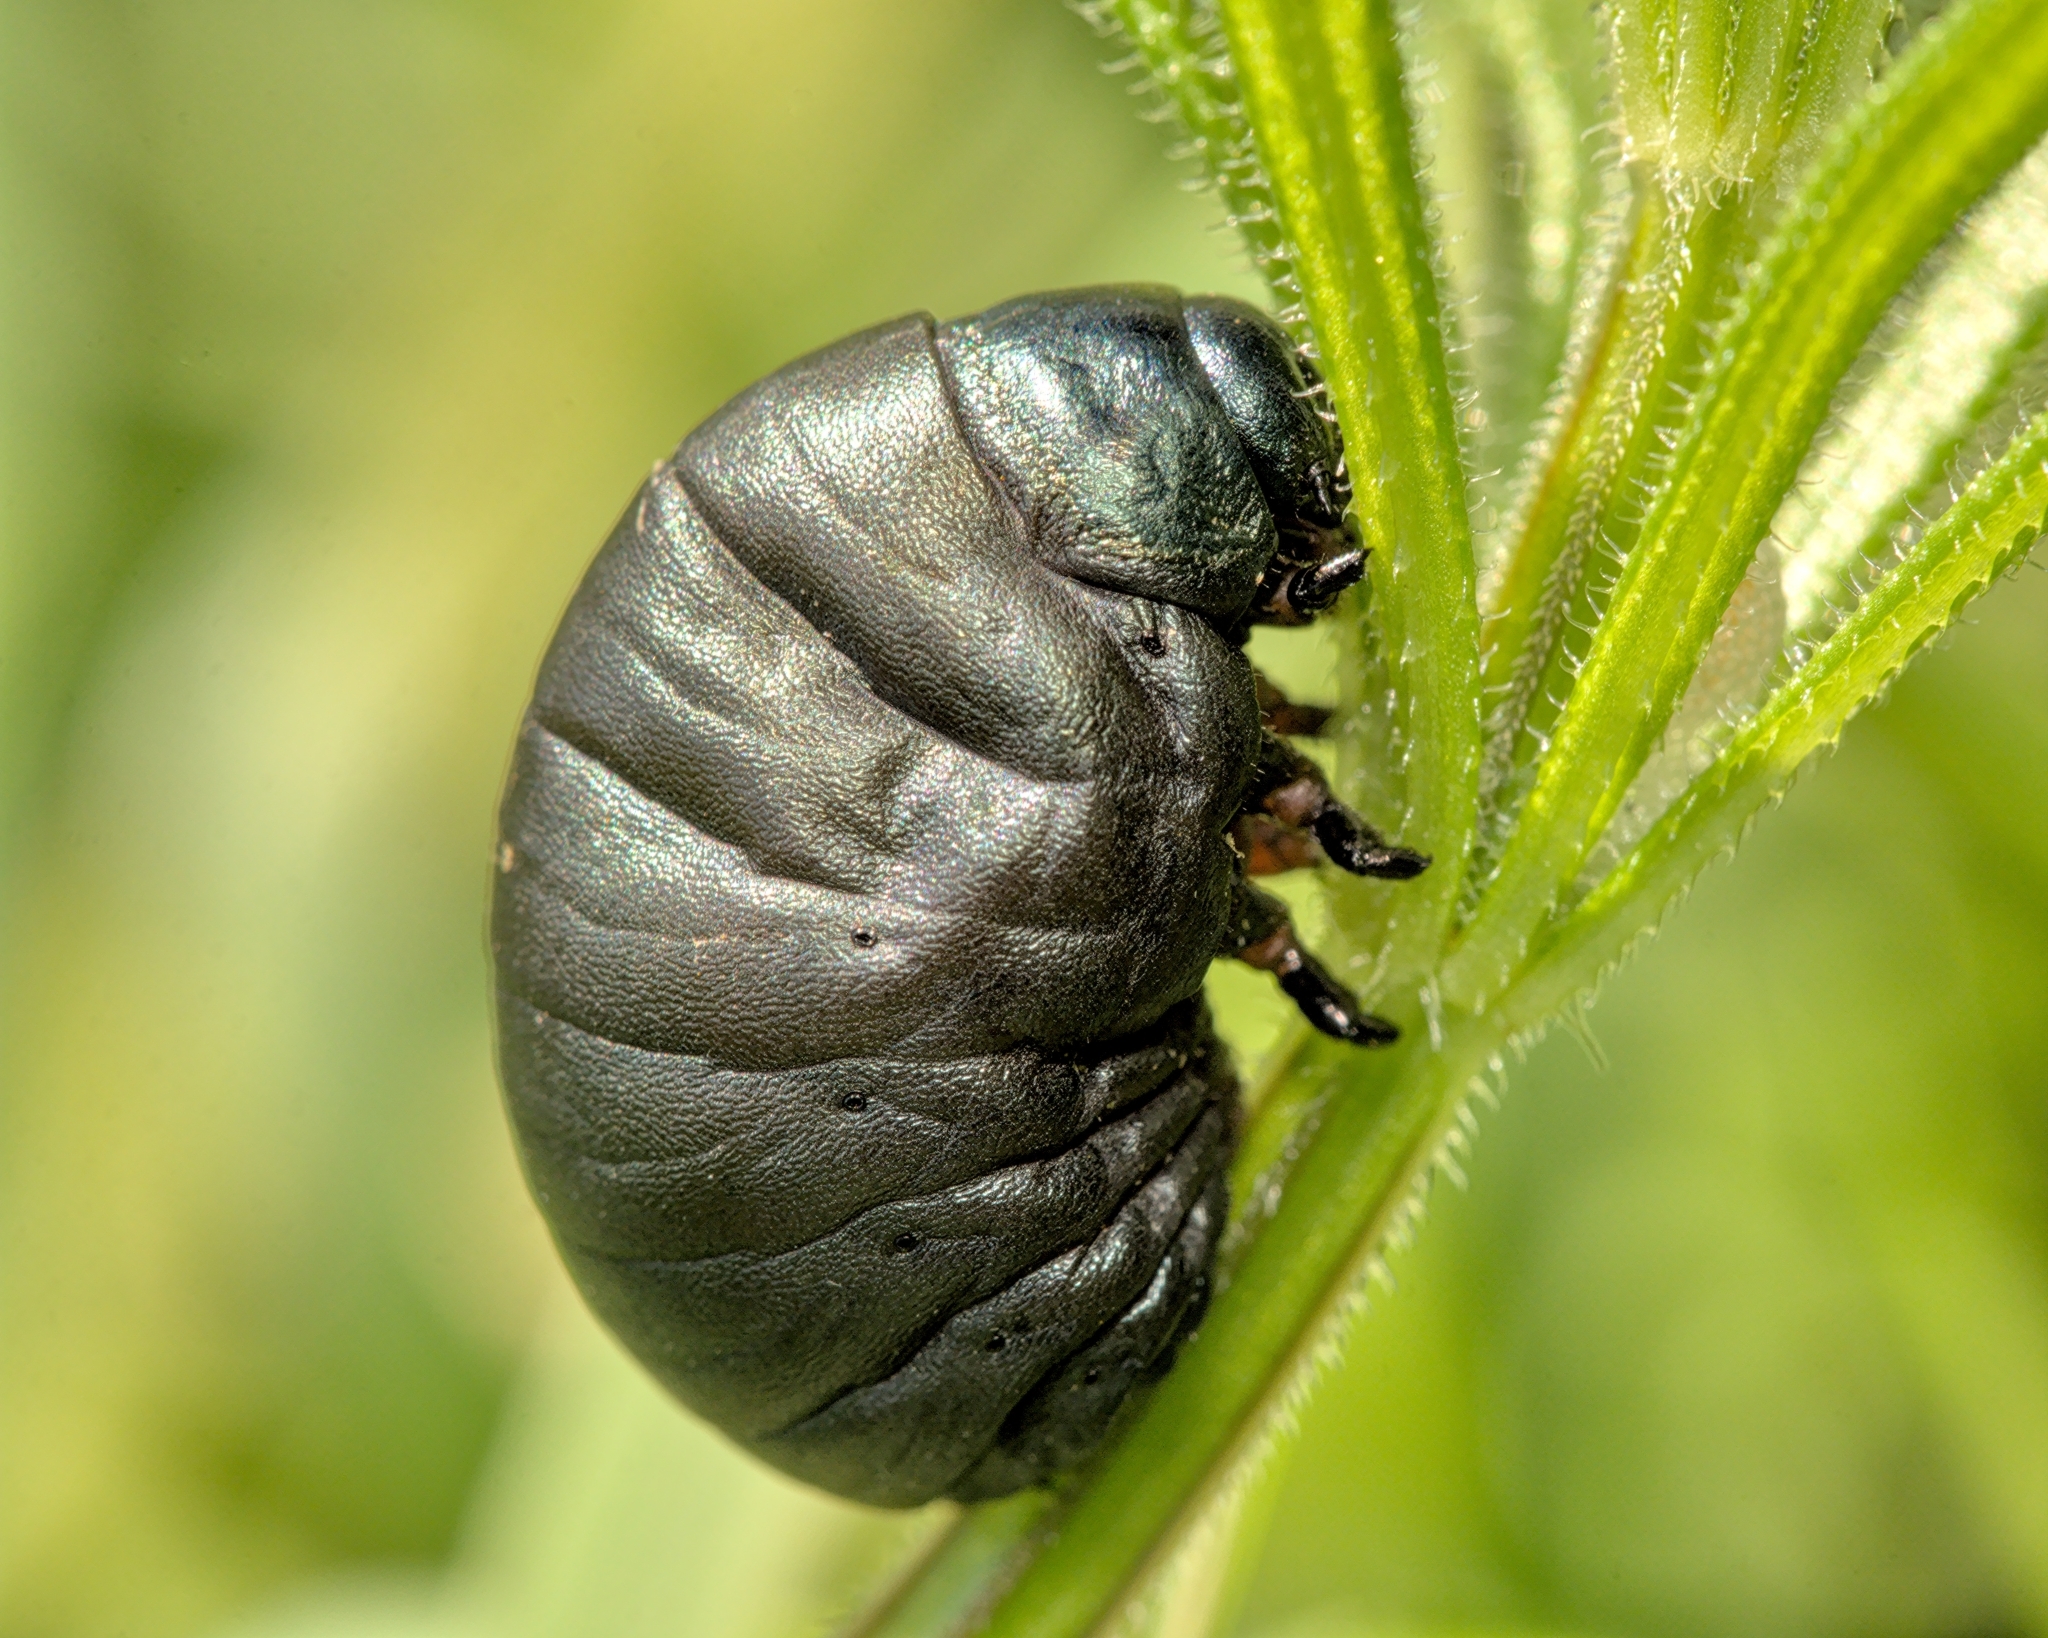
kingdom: Animalia
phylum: Arthropoda
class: Insecta
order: Coleoptera
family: Chrysomelidae
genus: Timarcha
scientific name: Timarcha tenebricosa
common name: Bloody-nosed beetle
